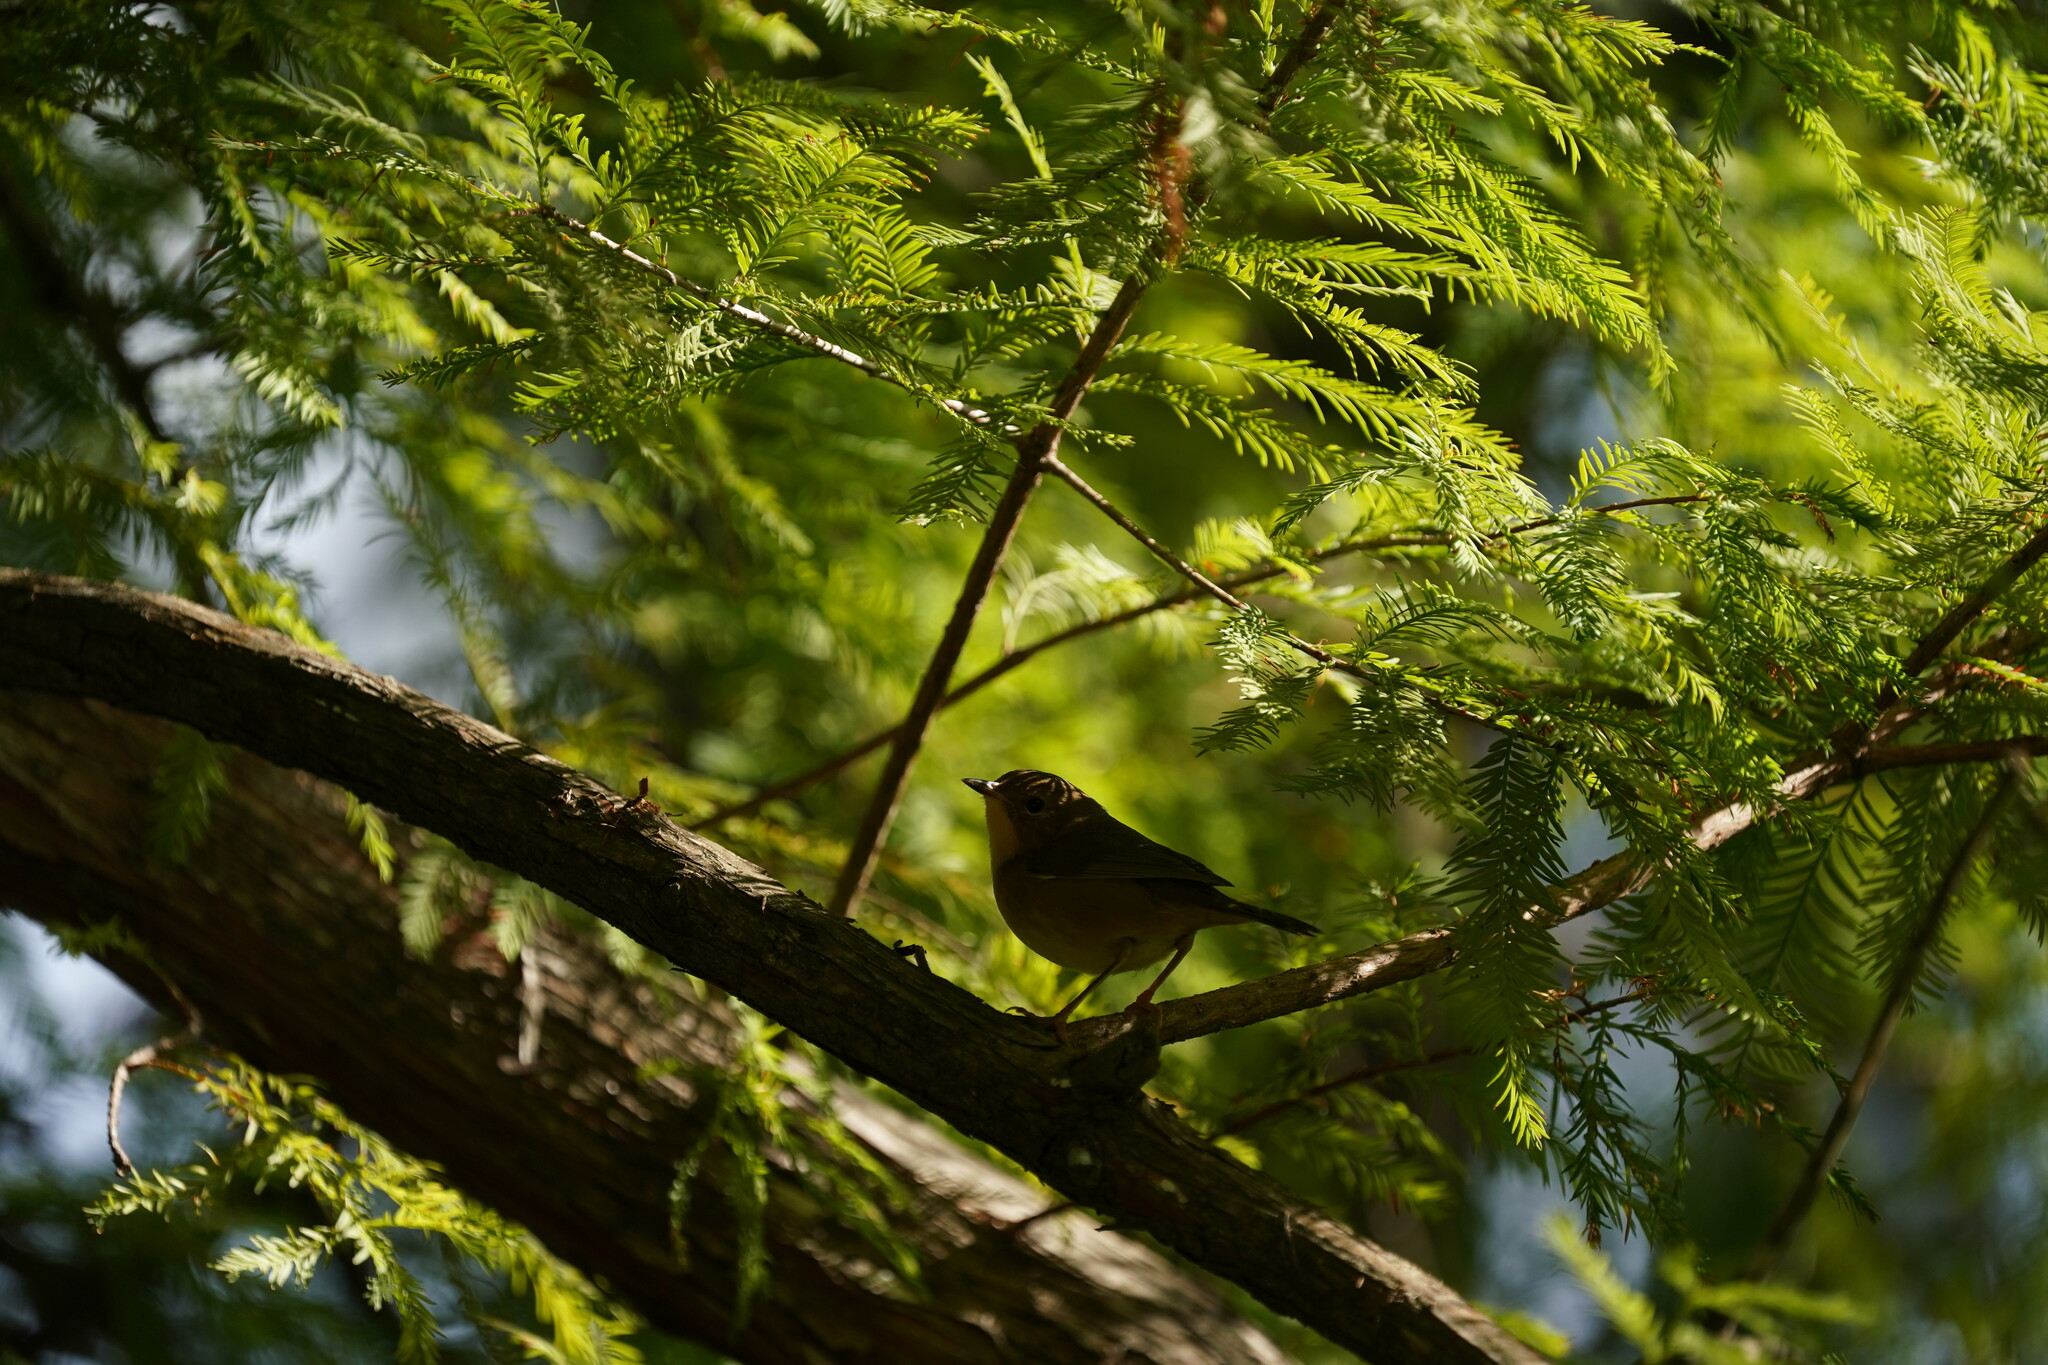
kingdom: Animalia
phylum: Chordata
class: Aves
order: Passeriformes
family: Parulidae
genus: Geothlypis
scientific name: Geothlypis trichas
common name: Common yellowthroat
